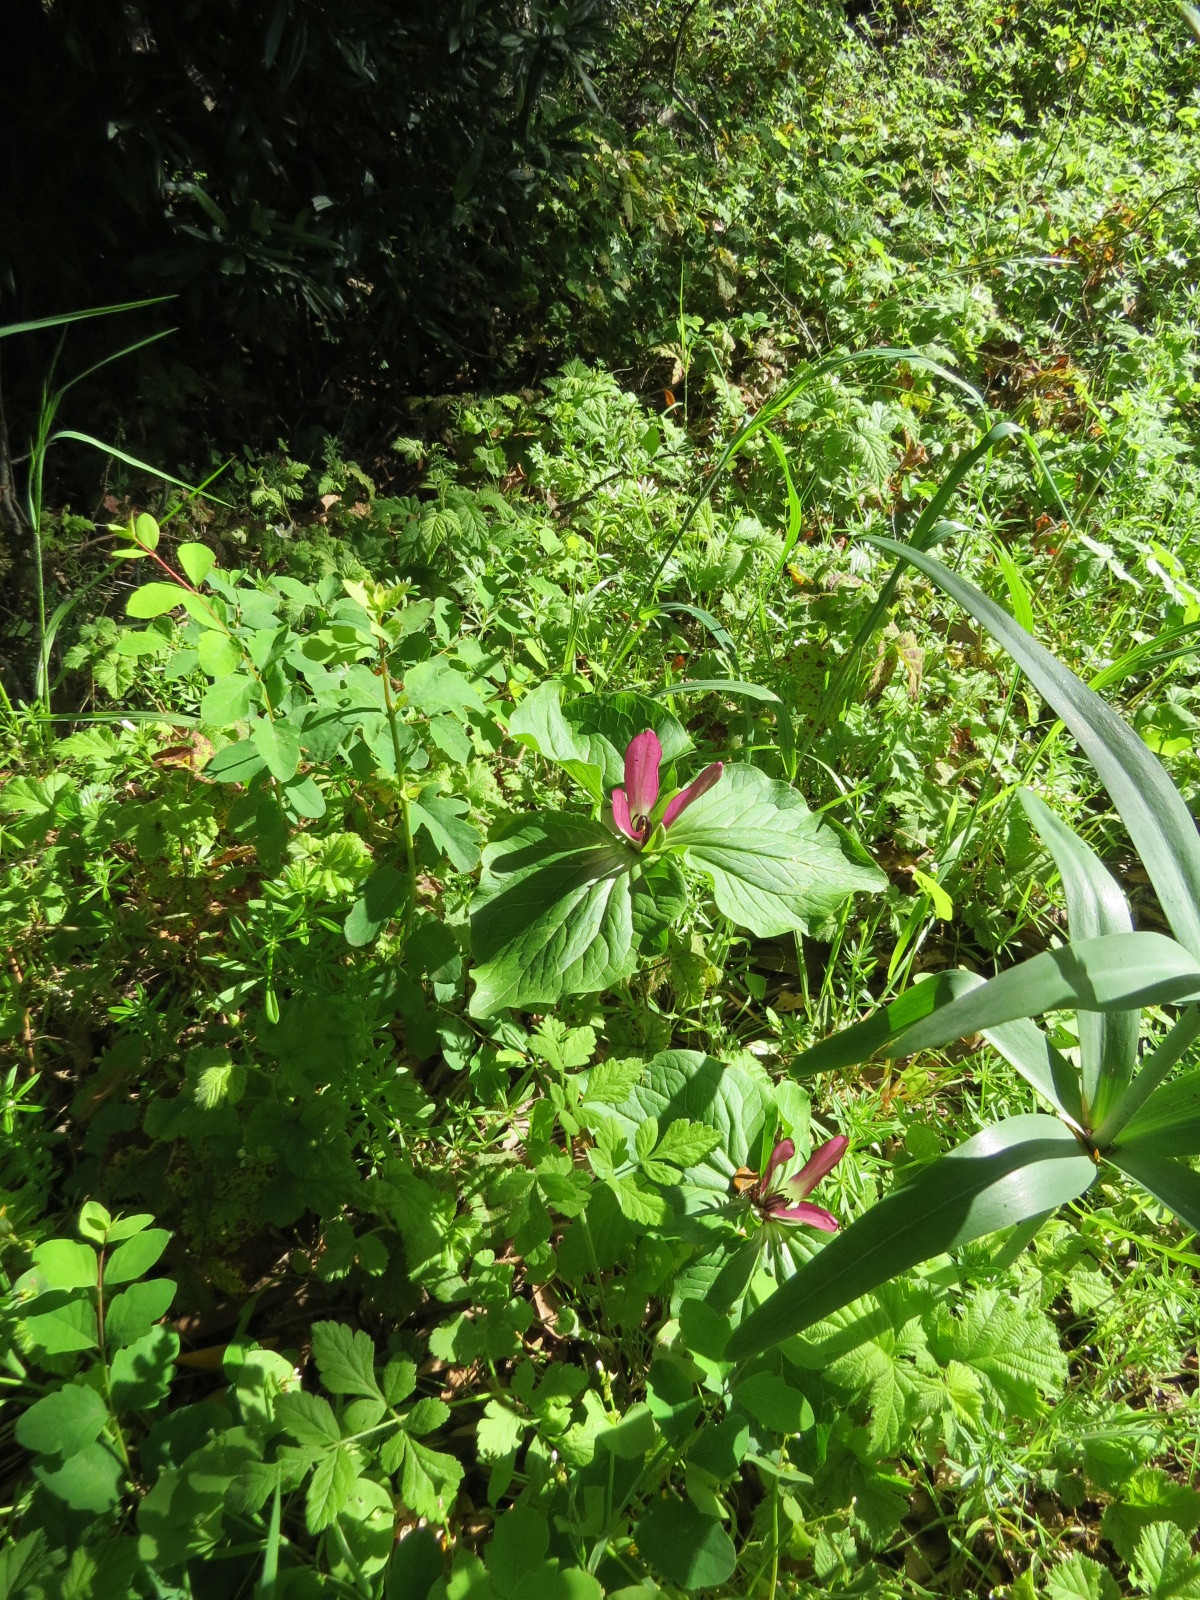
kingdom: Plantae
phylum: Tracheophyta
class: Liliopsida
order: Liliales
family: Melanthiaceae
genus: Trillium
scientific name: Trillium chloropetalum
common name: Giant trillium
